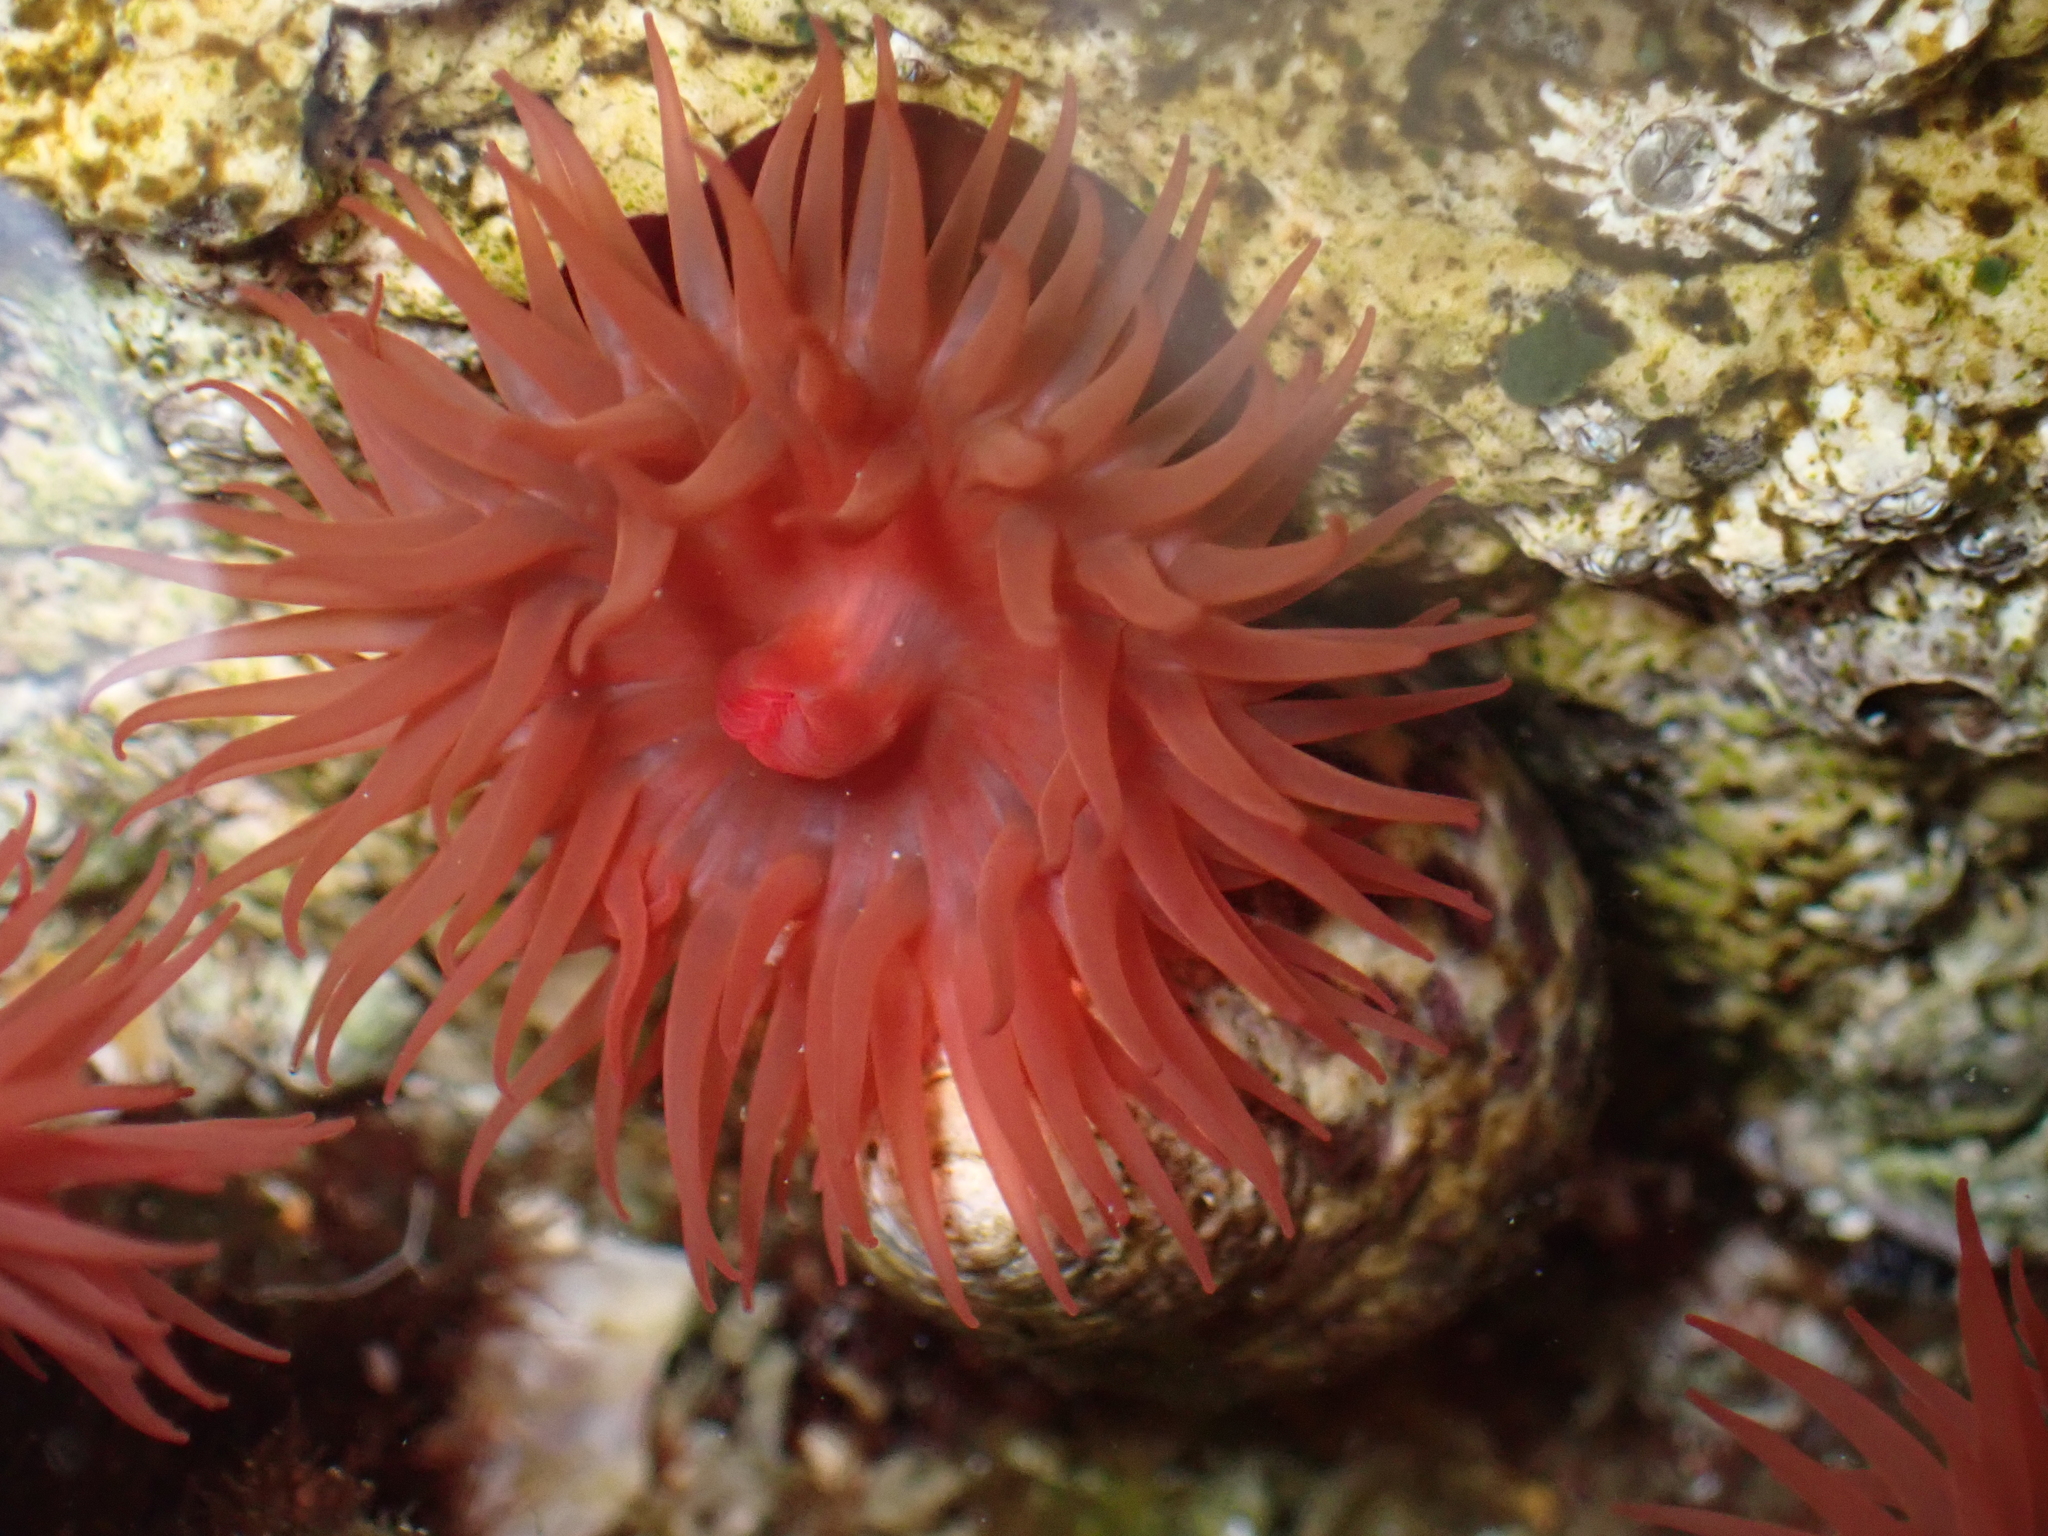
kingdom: Animalia
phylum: Cnidaria
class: Anthozoa
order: Actiniaria
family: Actiniidae
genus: Actinia
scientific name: Actinia mediterranea
